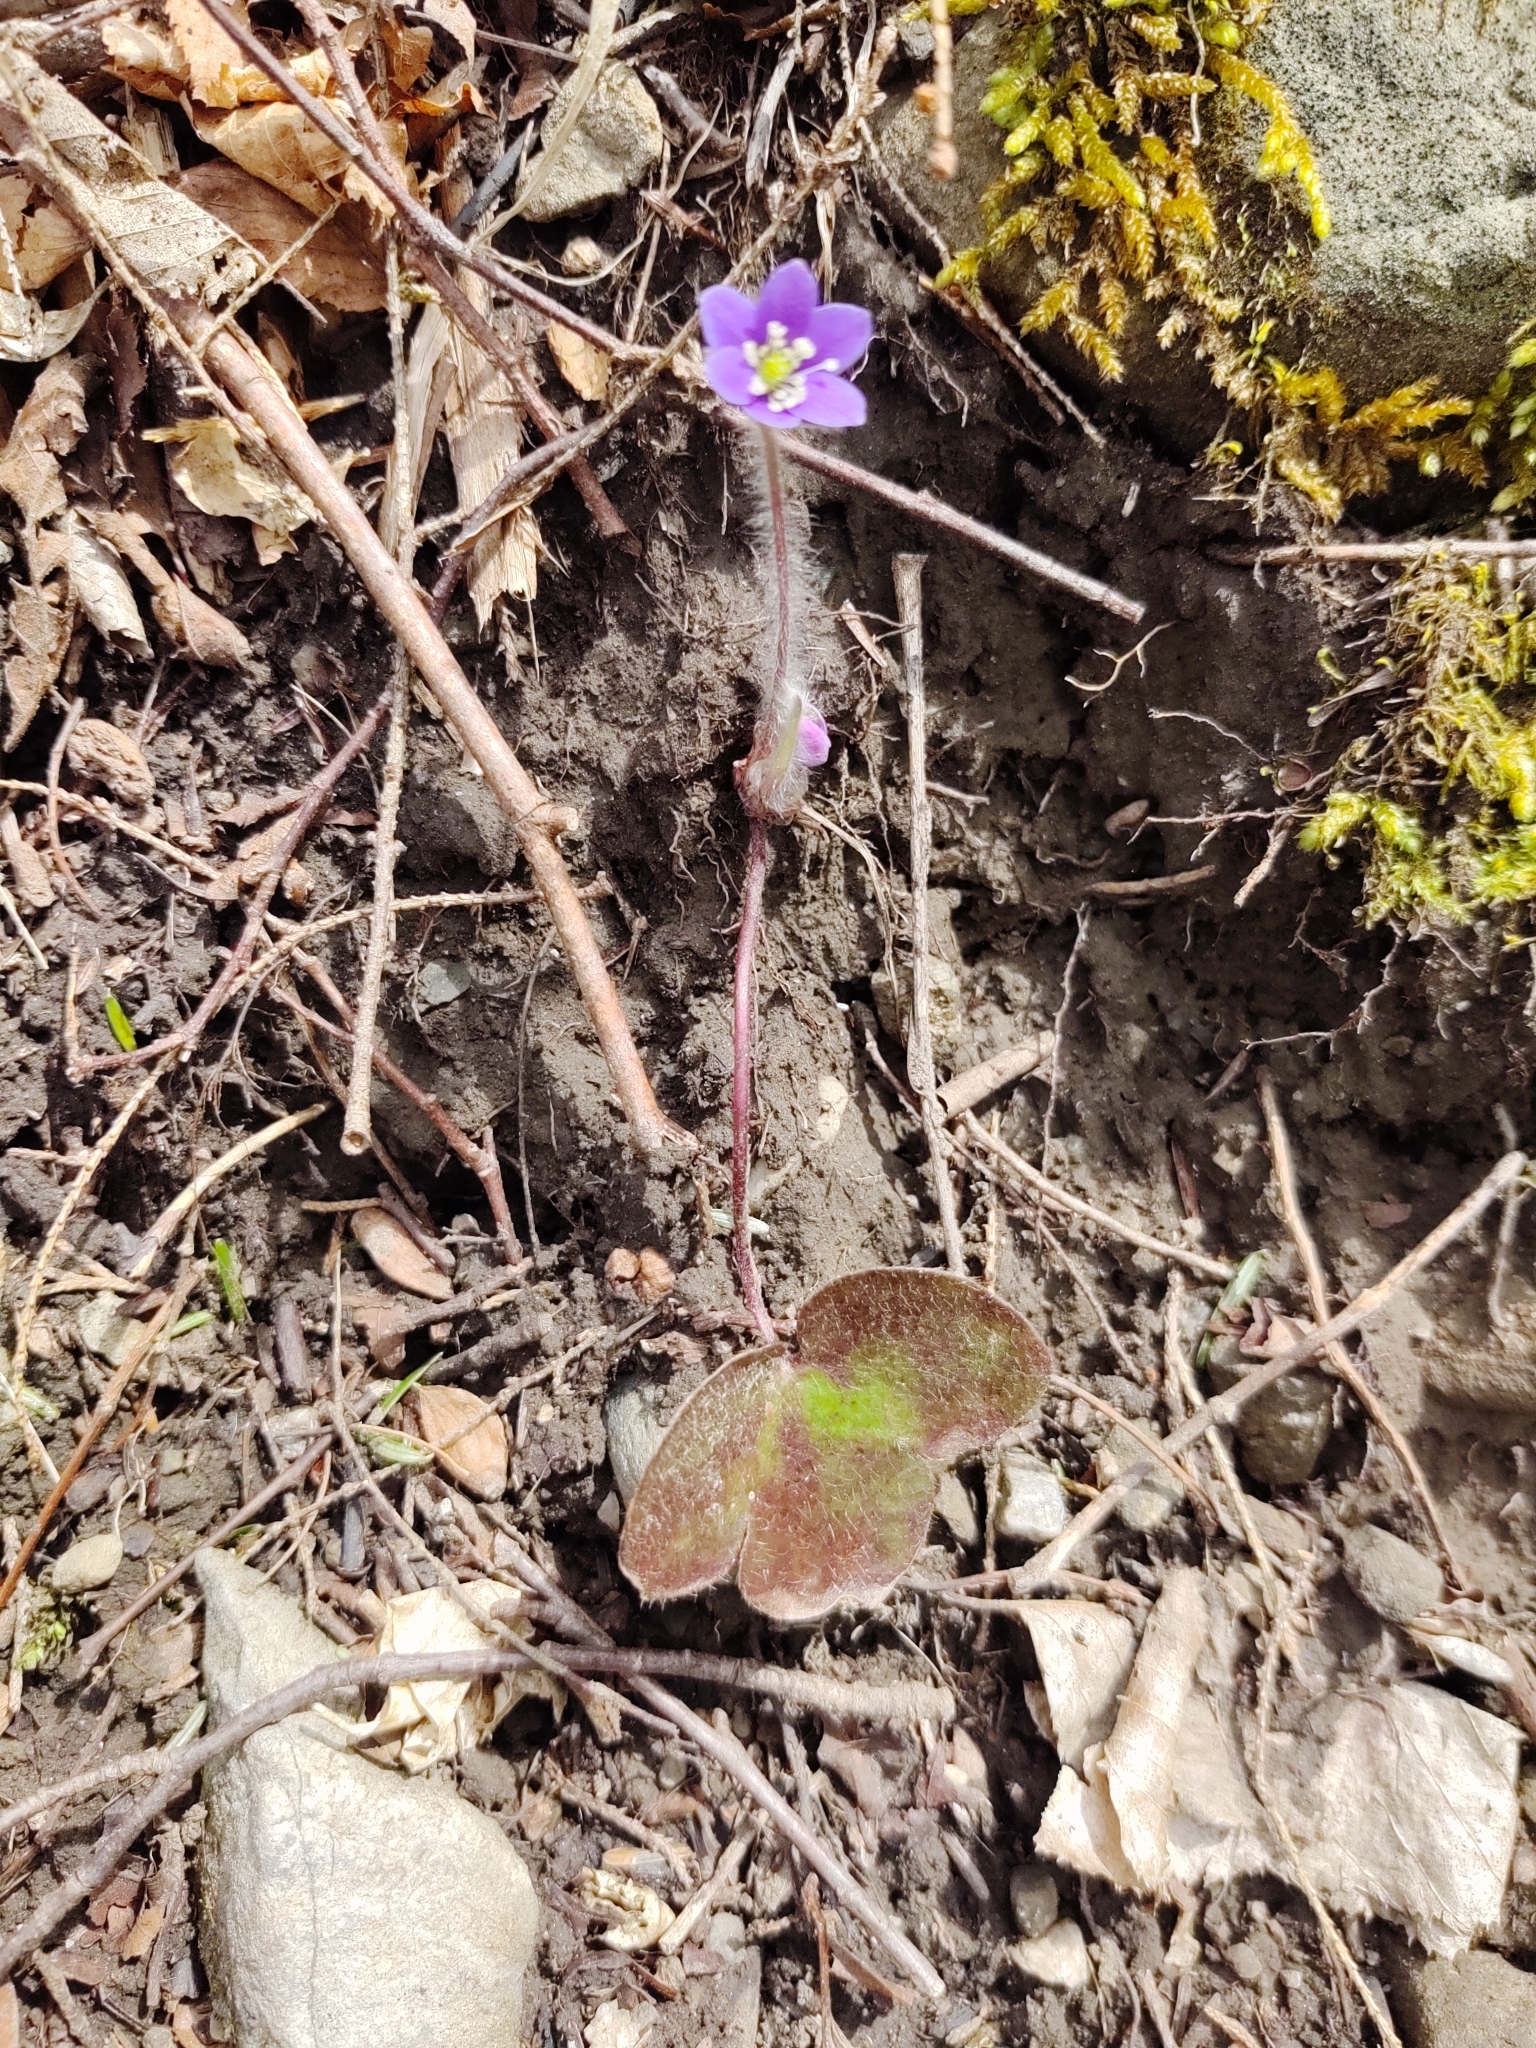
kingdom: Plantae
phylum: Tracheophyta
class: Magnoliopsida
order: Ranunculales
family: Ranunculaceae
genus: Hepatica
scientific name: Hepatica americana
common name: American hepatica
